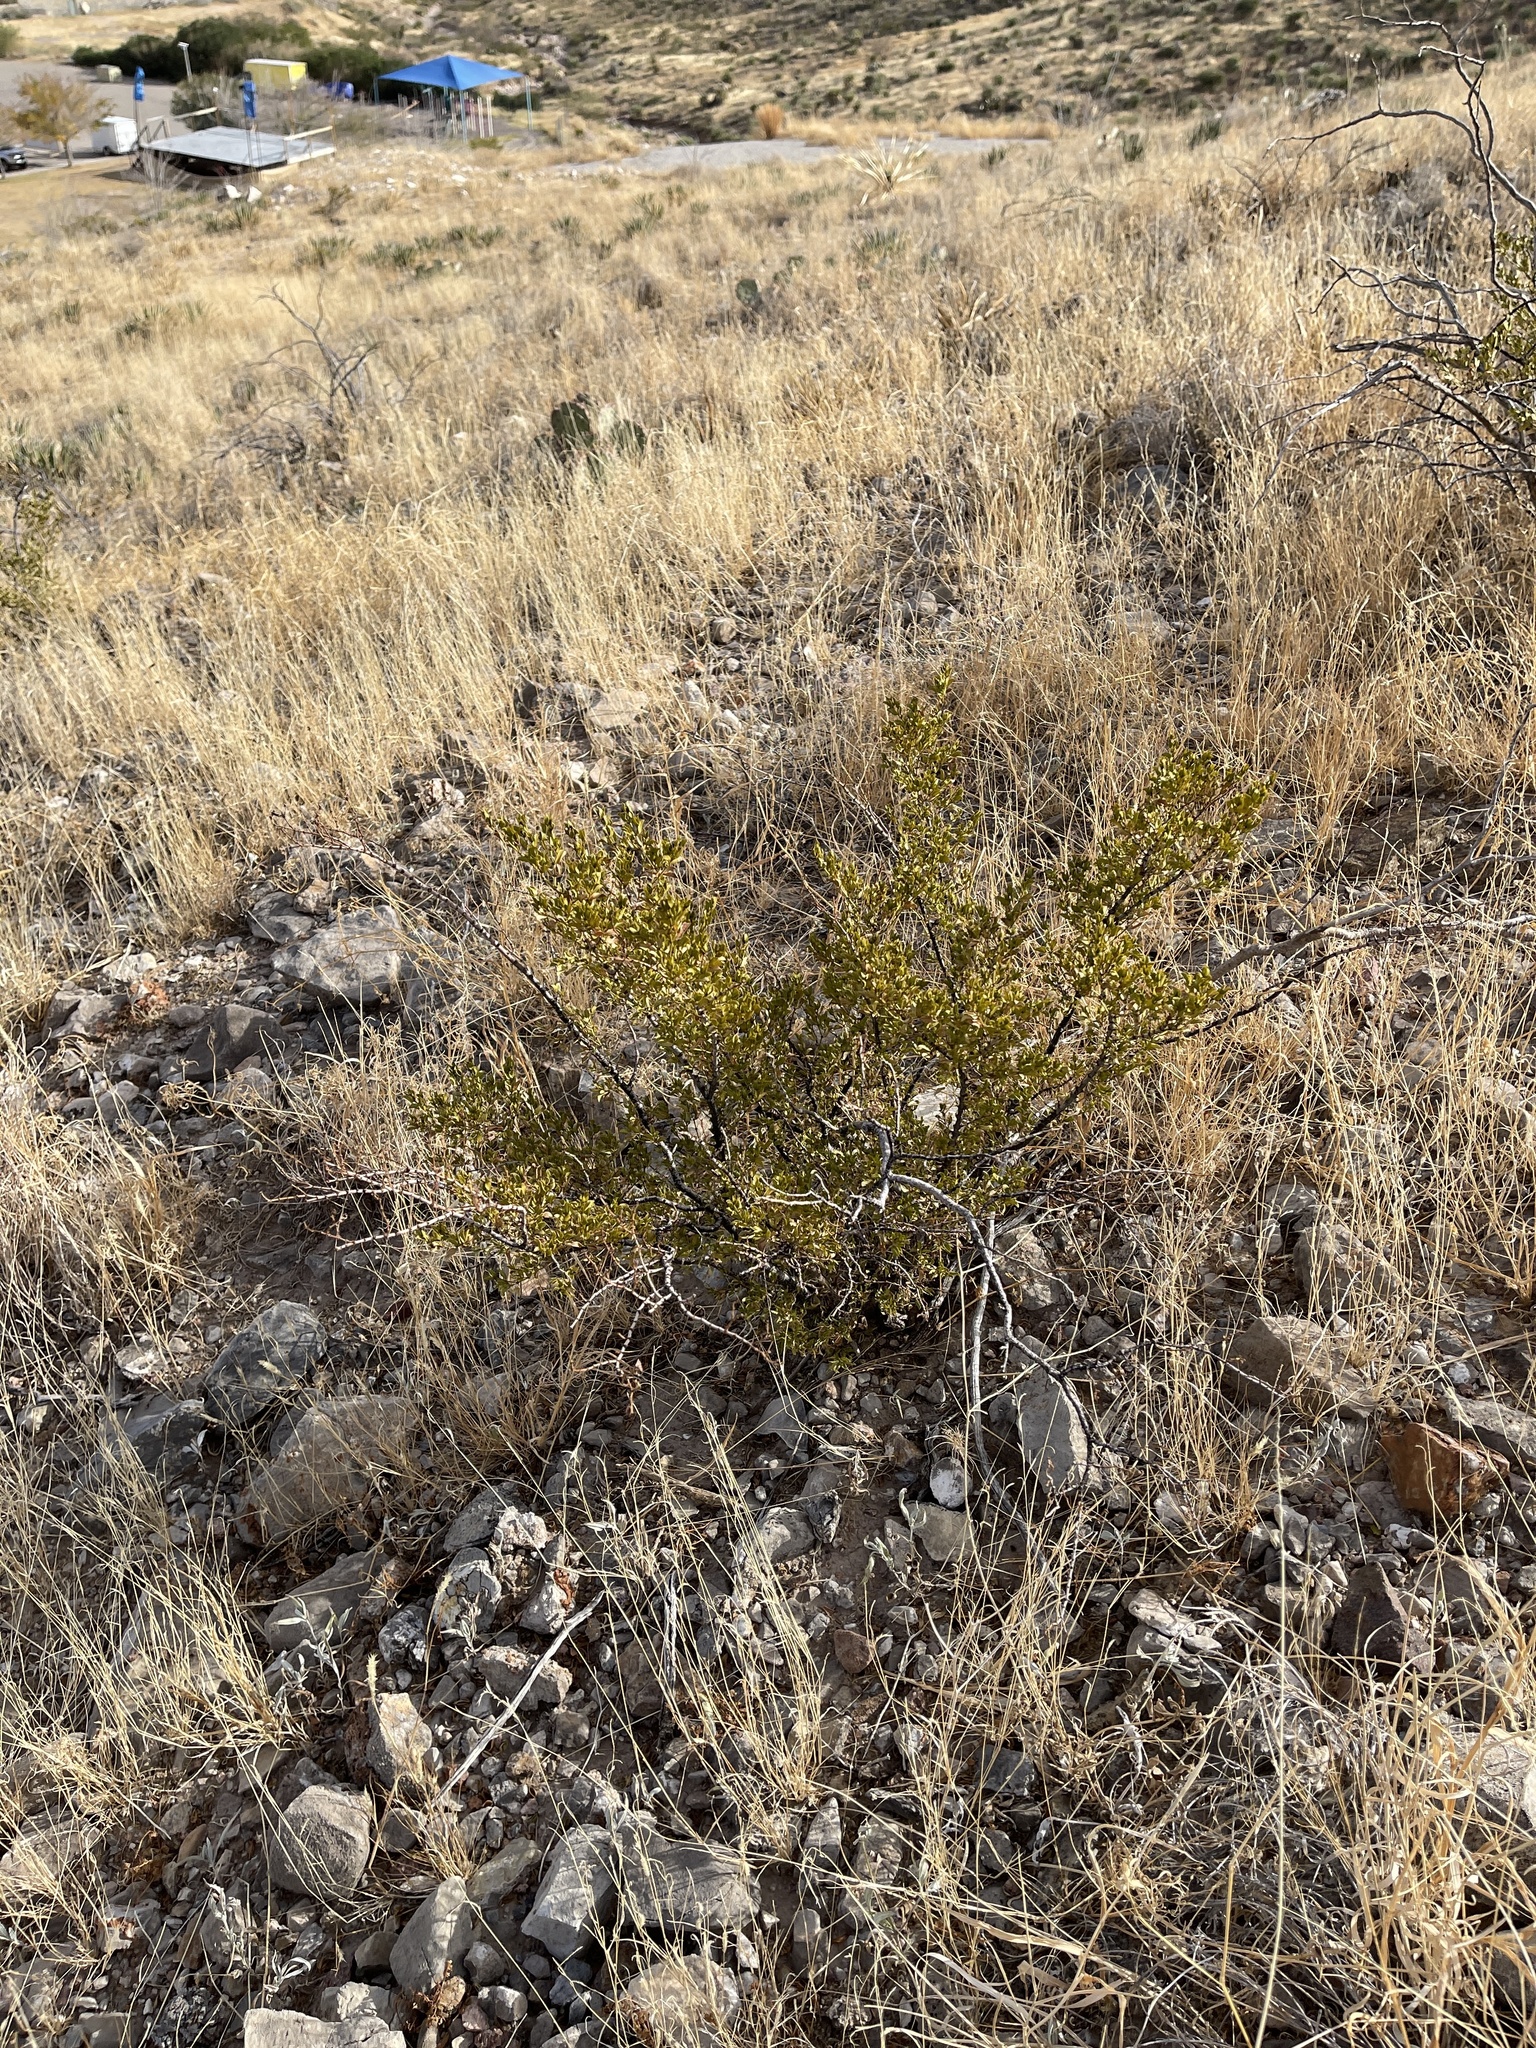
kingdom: Plantae
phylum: Tracheophyta
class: Magnoliopsida
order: Zygophyllales
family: Zygophyllaceae
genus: Larrea
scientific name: Larrea tridentata
